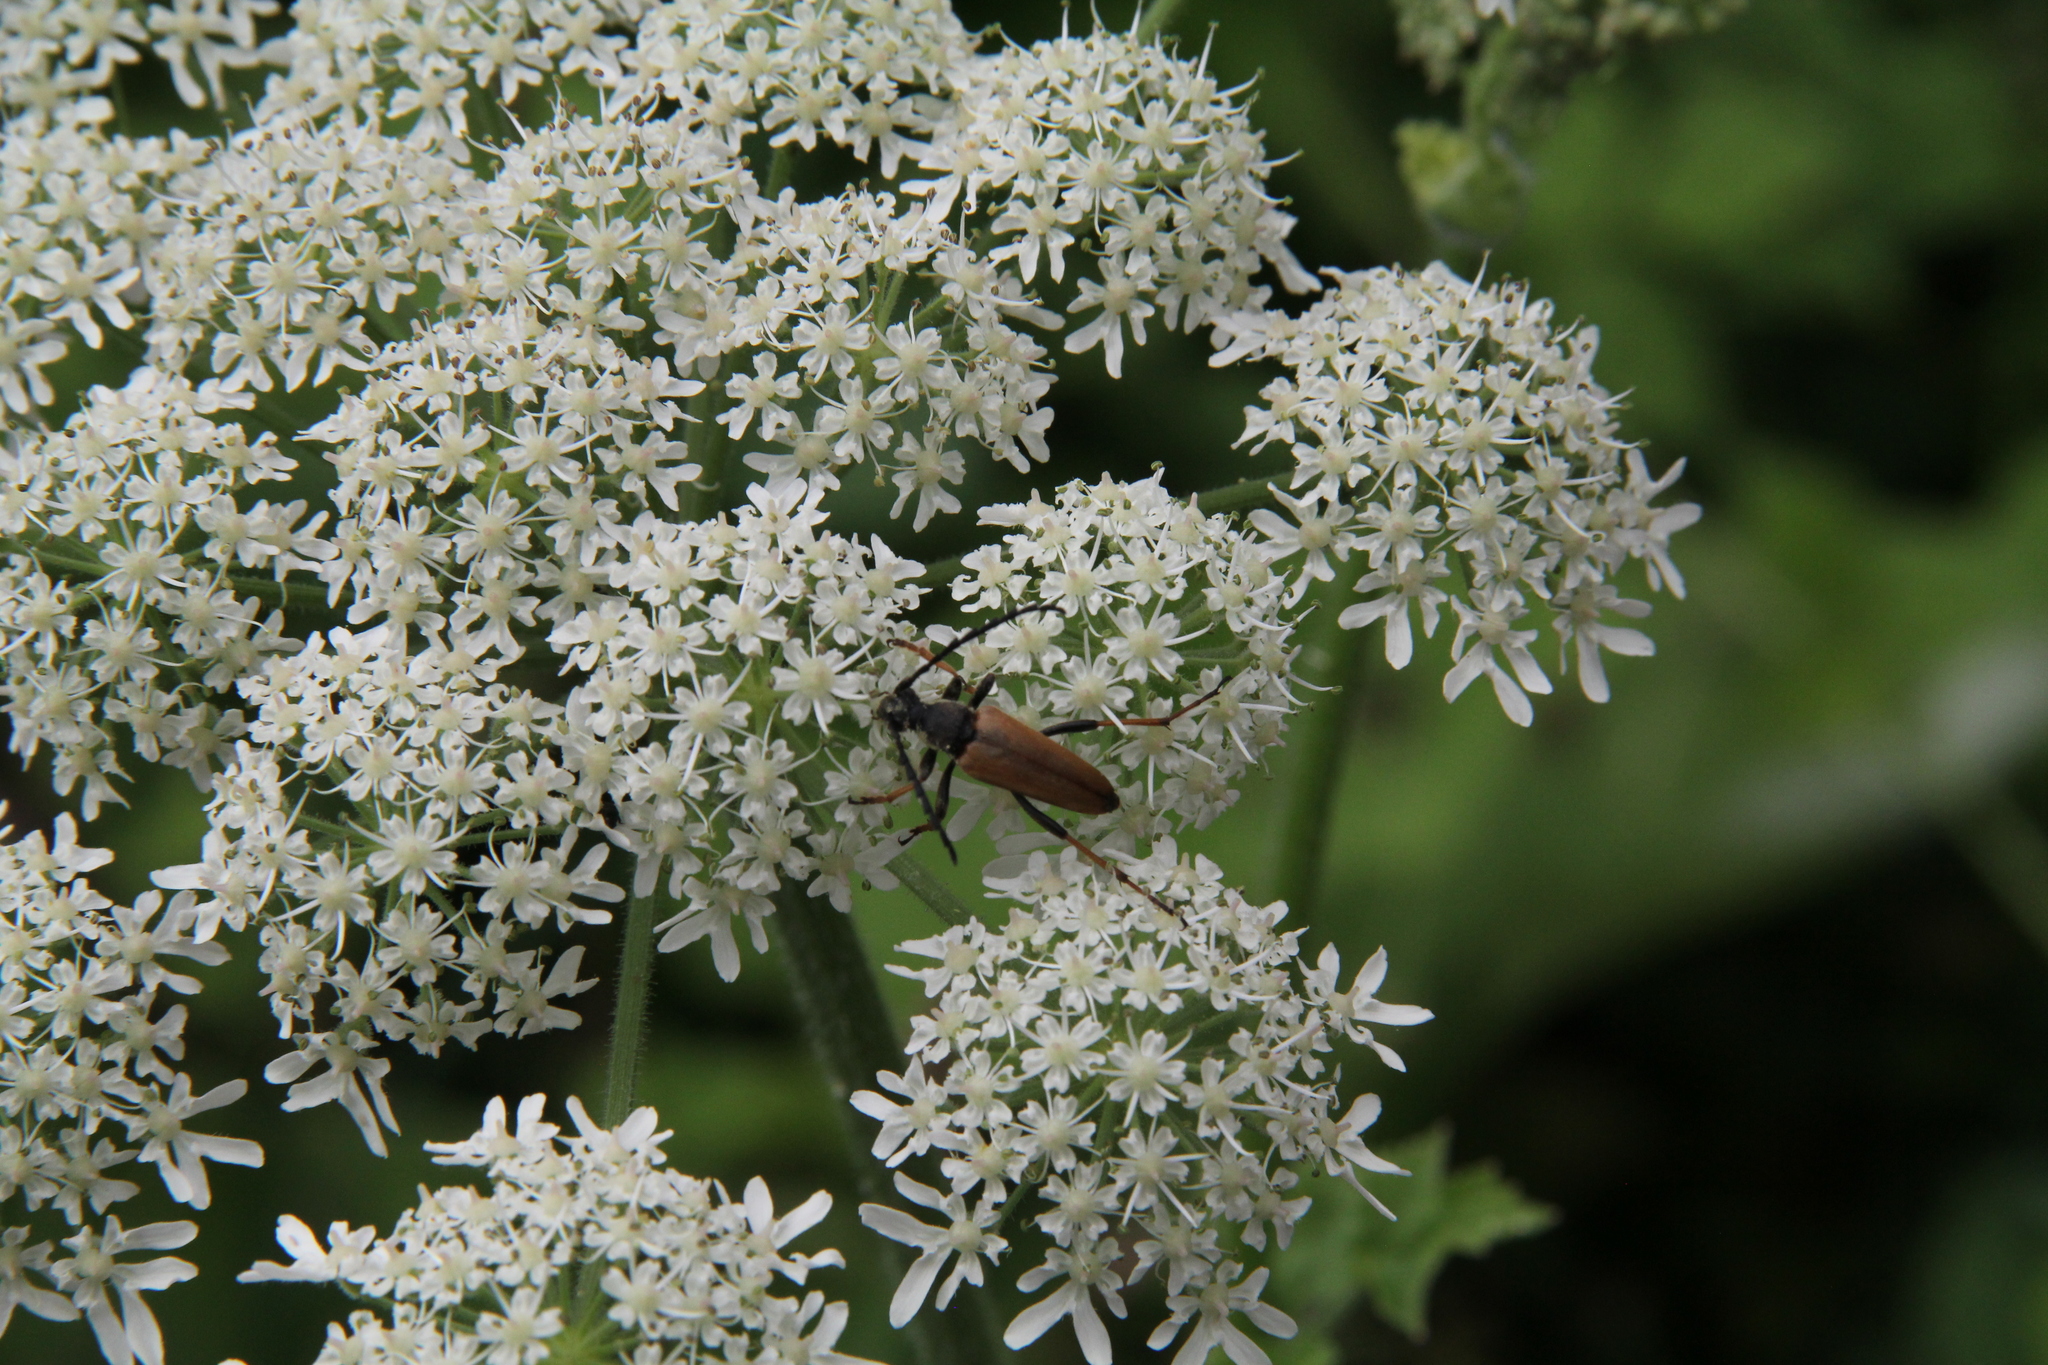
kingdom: Animalia
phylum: Arthropoda
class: Insecta
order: Coleoptera
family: Cerambycidae
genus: Stictoleptura
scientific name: Stictoleptura rubra
